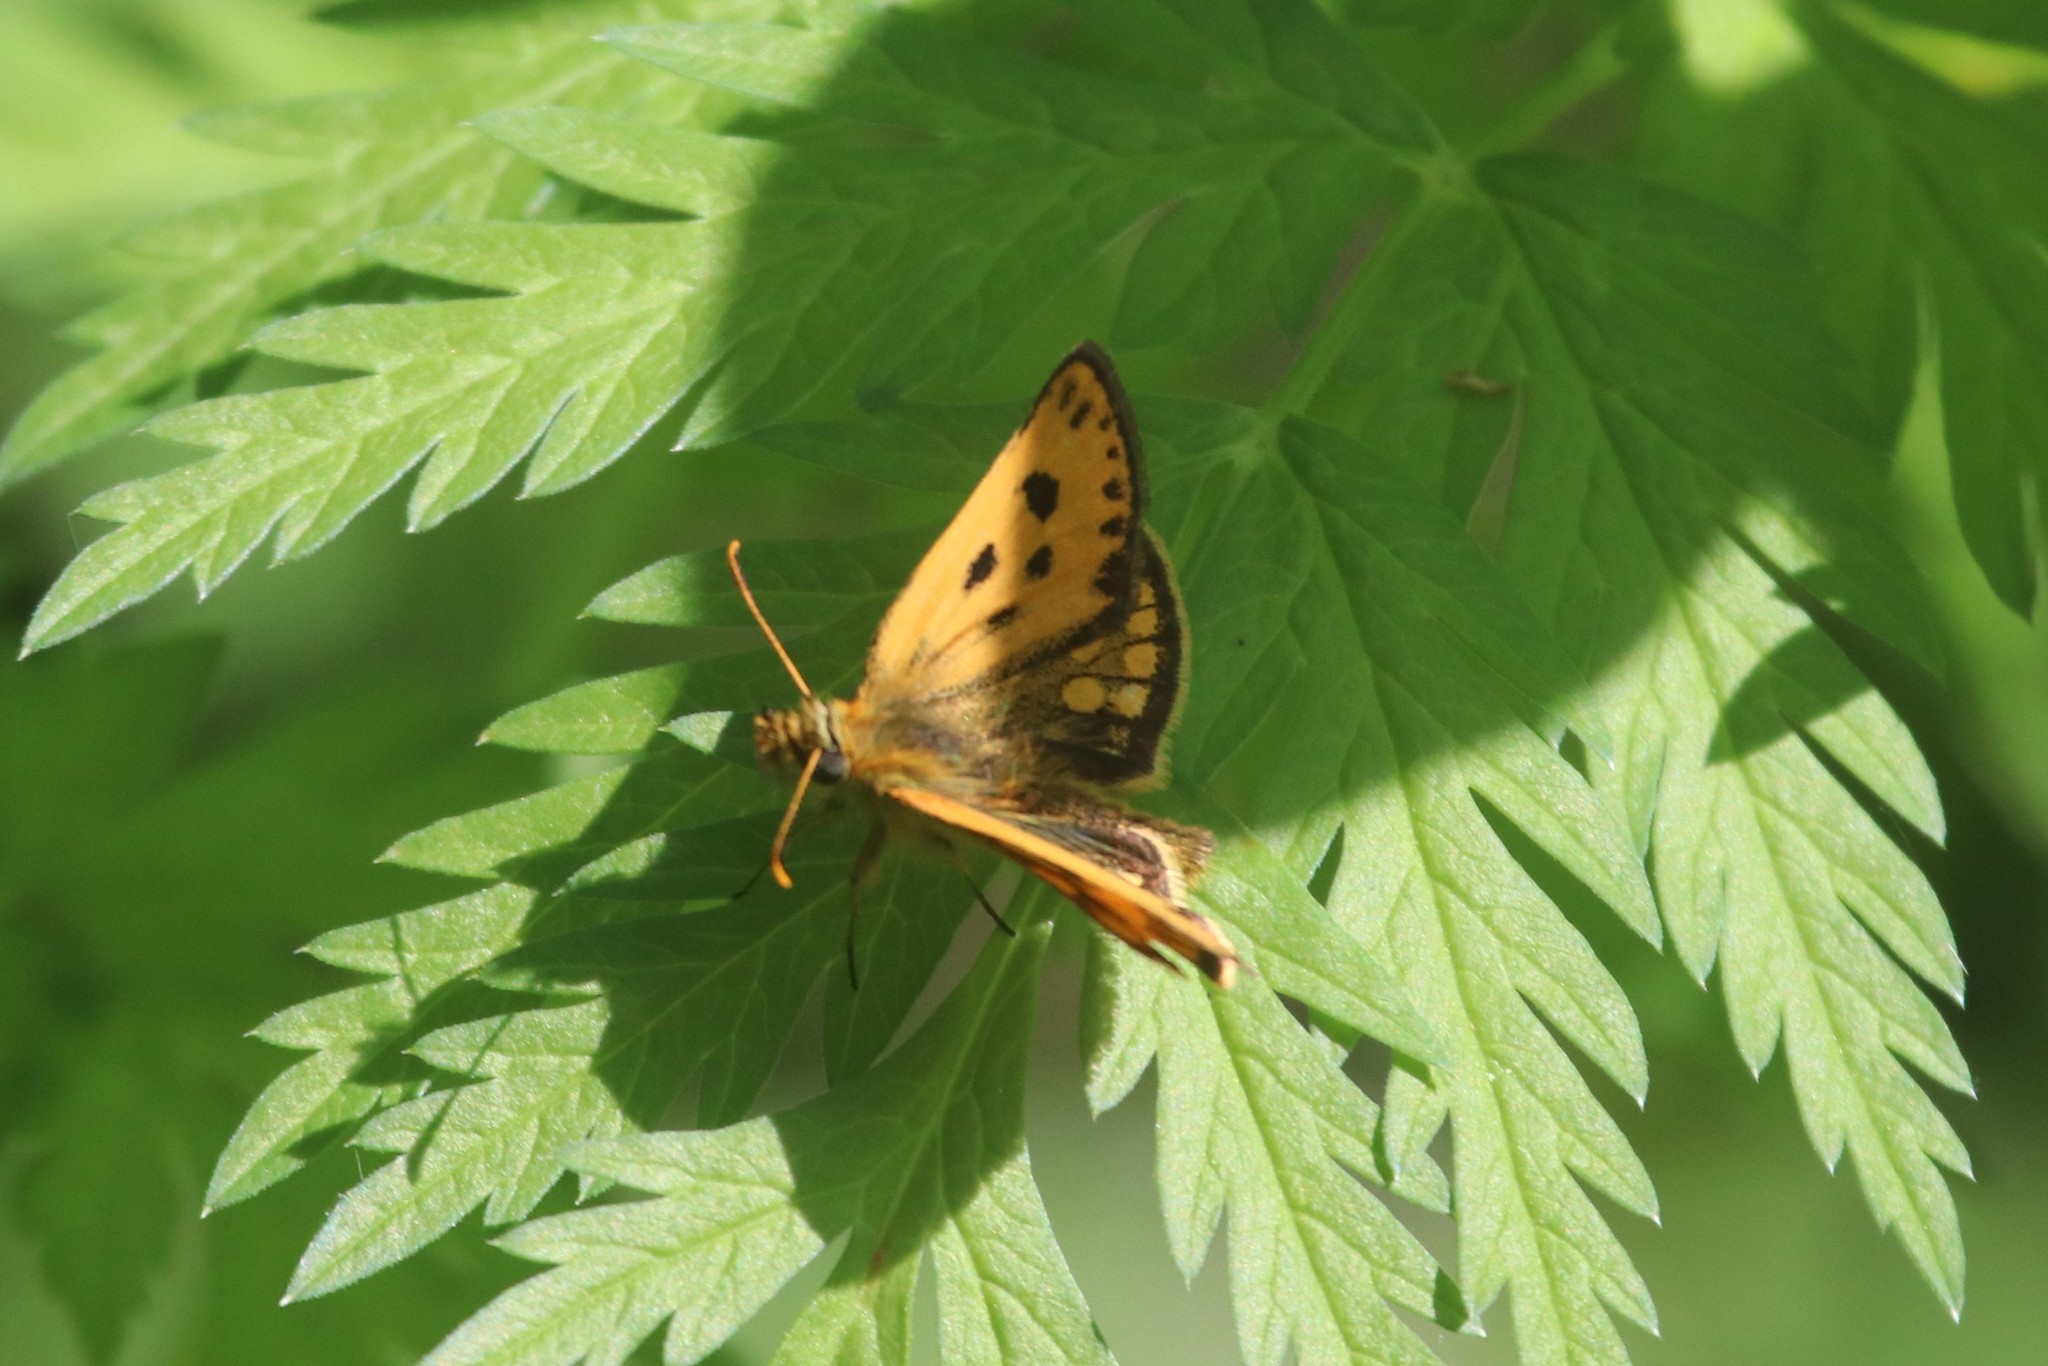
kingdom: Animalia
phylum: Arthropoda
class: Insecta
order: Lepidoptera
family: Hesperiidae
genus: Carterocephalus
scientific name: Carterocephalus silvicola
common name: Northern chequered skipper
